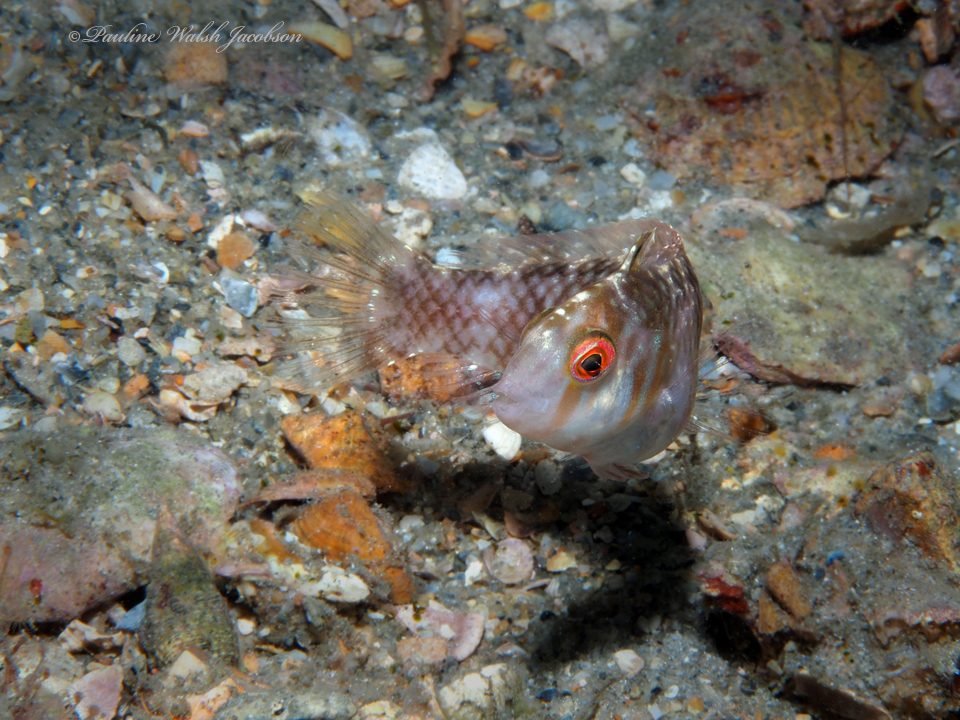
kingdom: Animalia
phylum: Chordata
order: Perciformes
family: Labridae
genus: Xyrichtys
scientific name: Xyrichtys splendens
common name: Green razorfish
